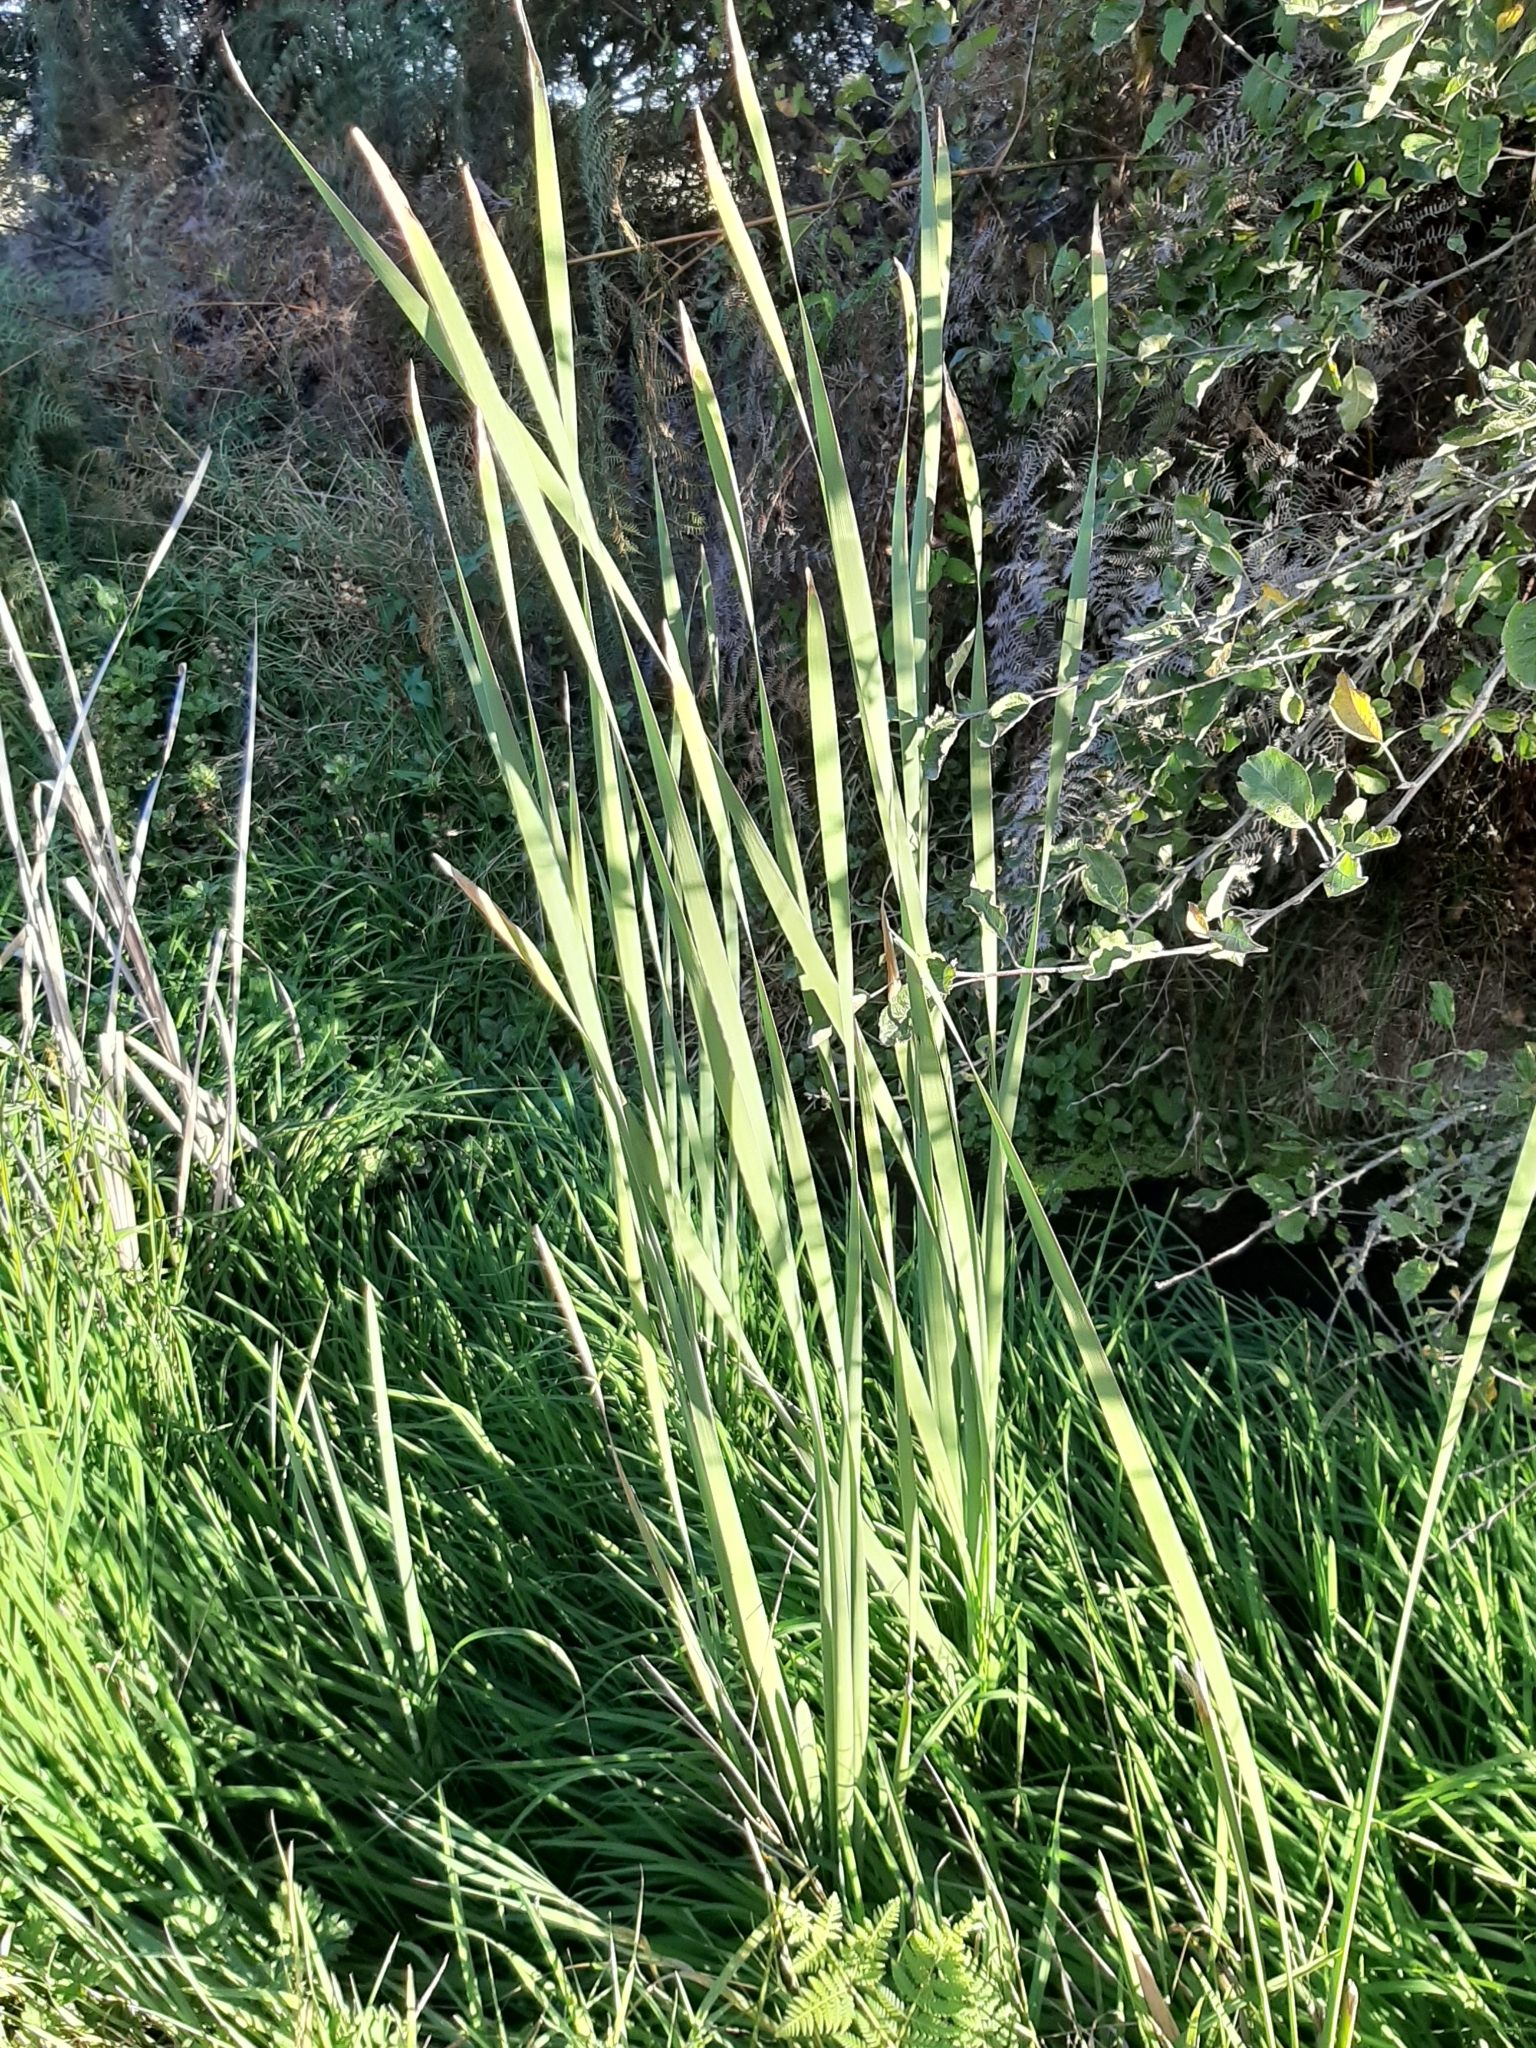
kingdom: Plantae
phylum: Tracheophyta
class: Liliopsida
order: Poales
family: Typhaceae
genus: Typha
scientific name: Typha orientalis
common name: Bullrush
